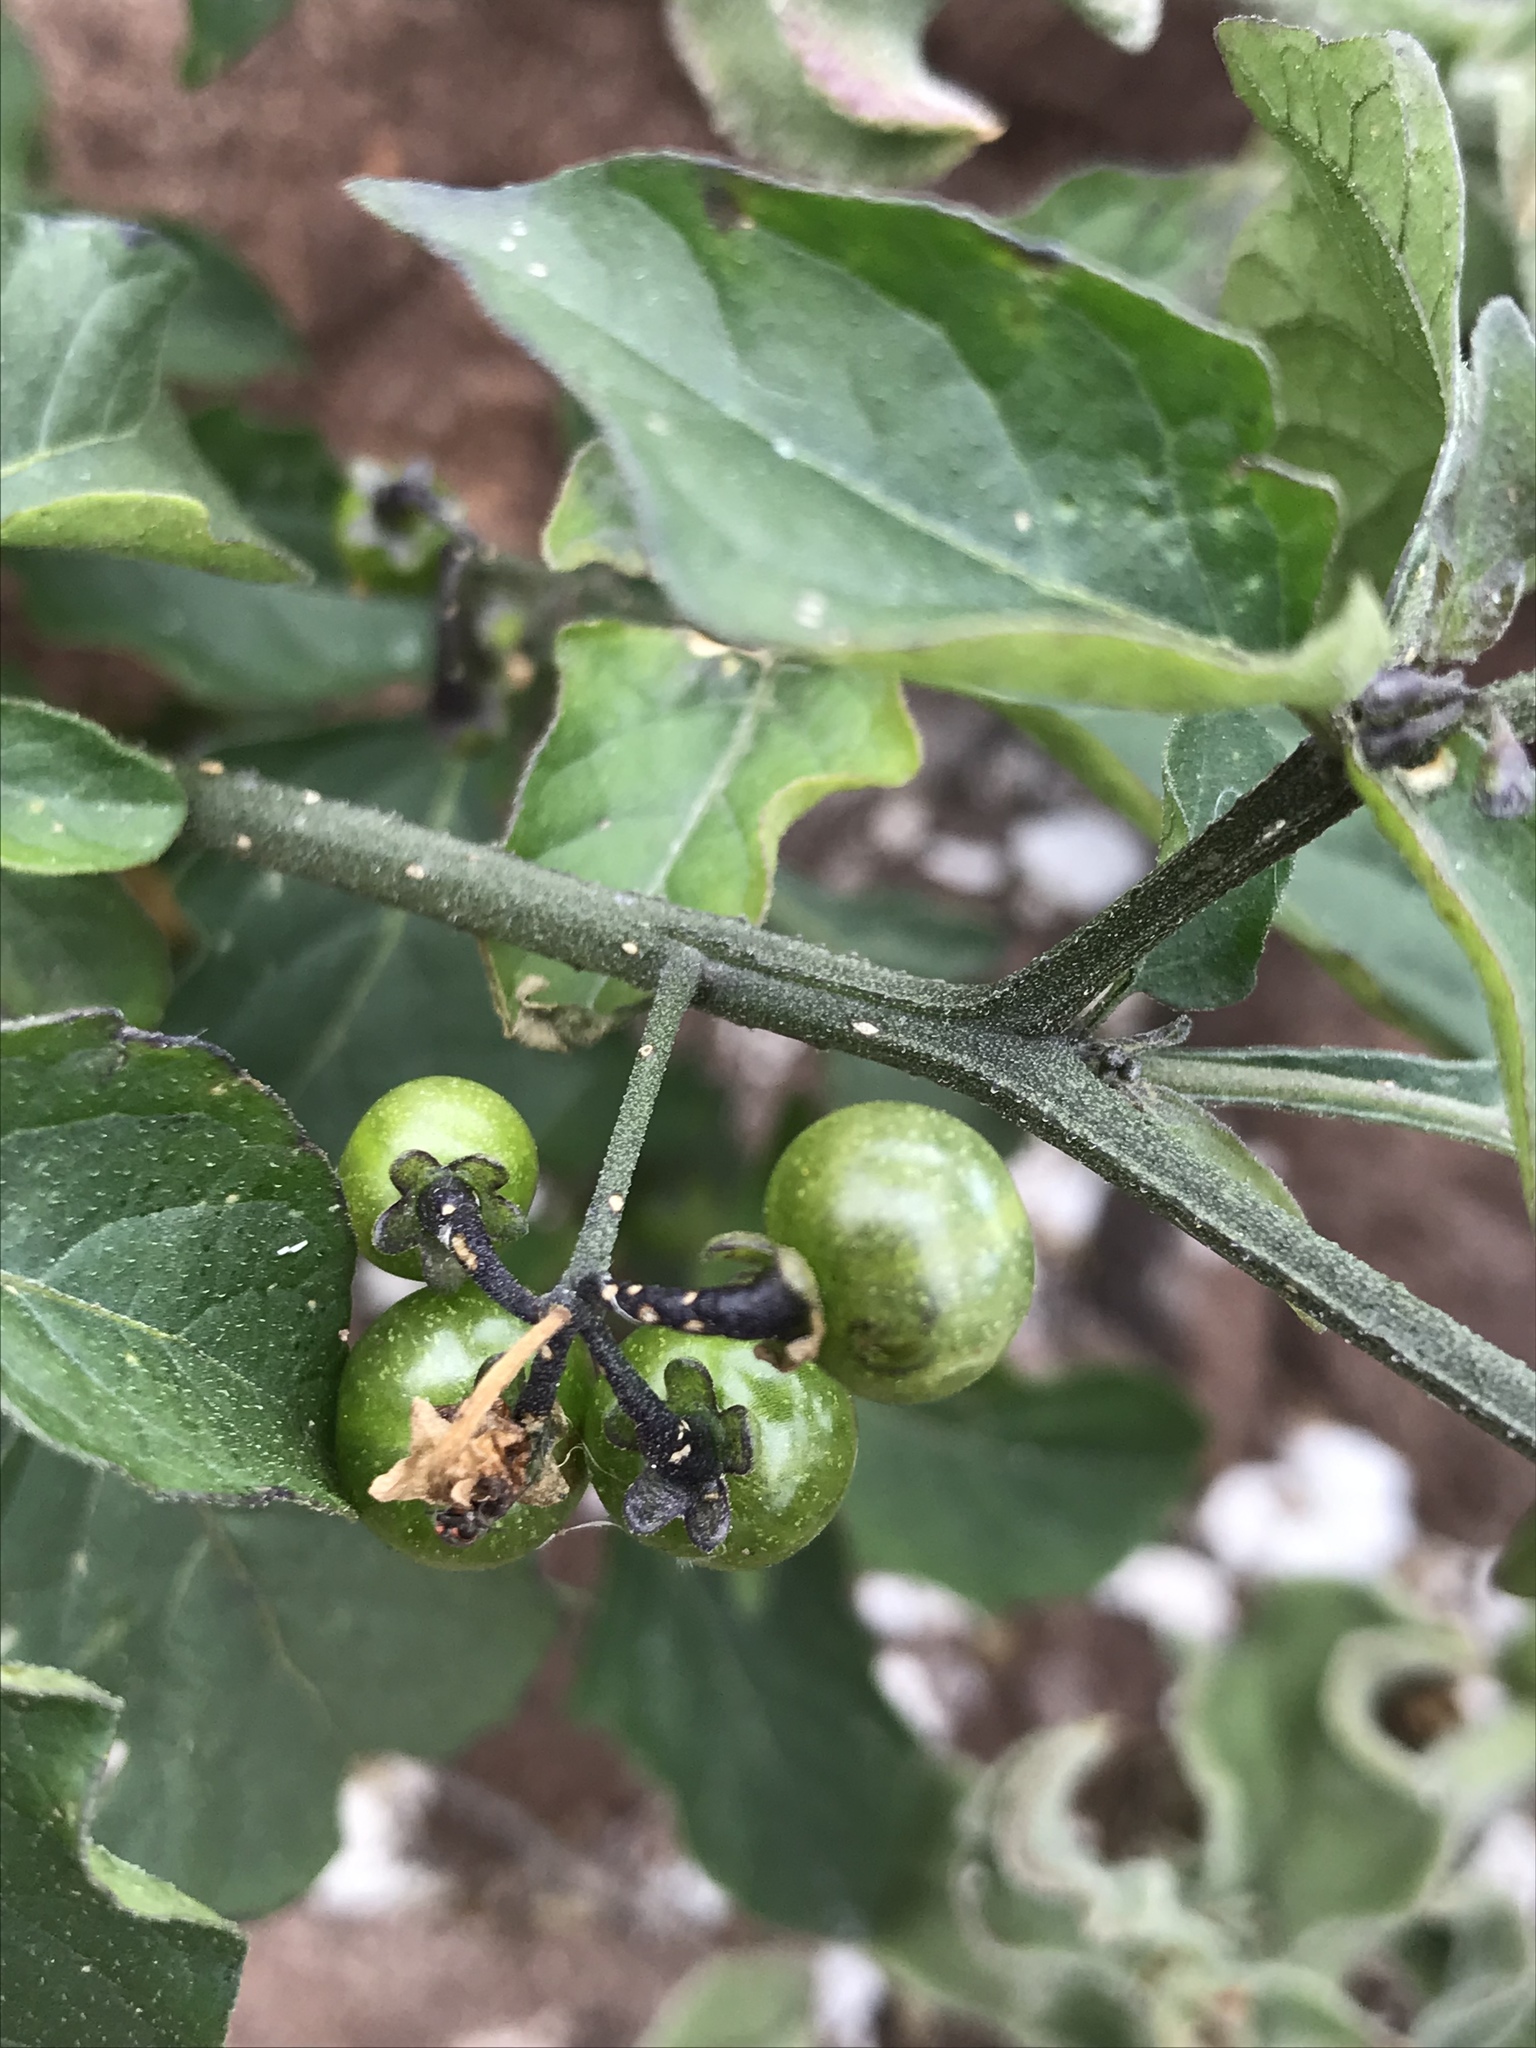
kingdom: Plantae
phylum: Tracheophyta
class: Magnoliopsida
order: Solanales
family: Solanaceae
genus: Solanum
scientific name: Solanum americanum
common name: American black nightshade
